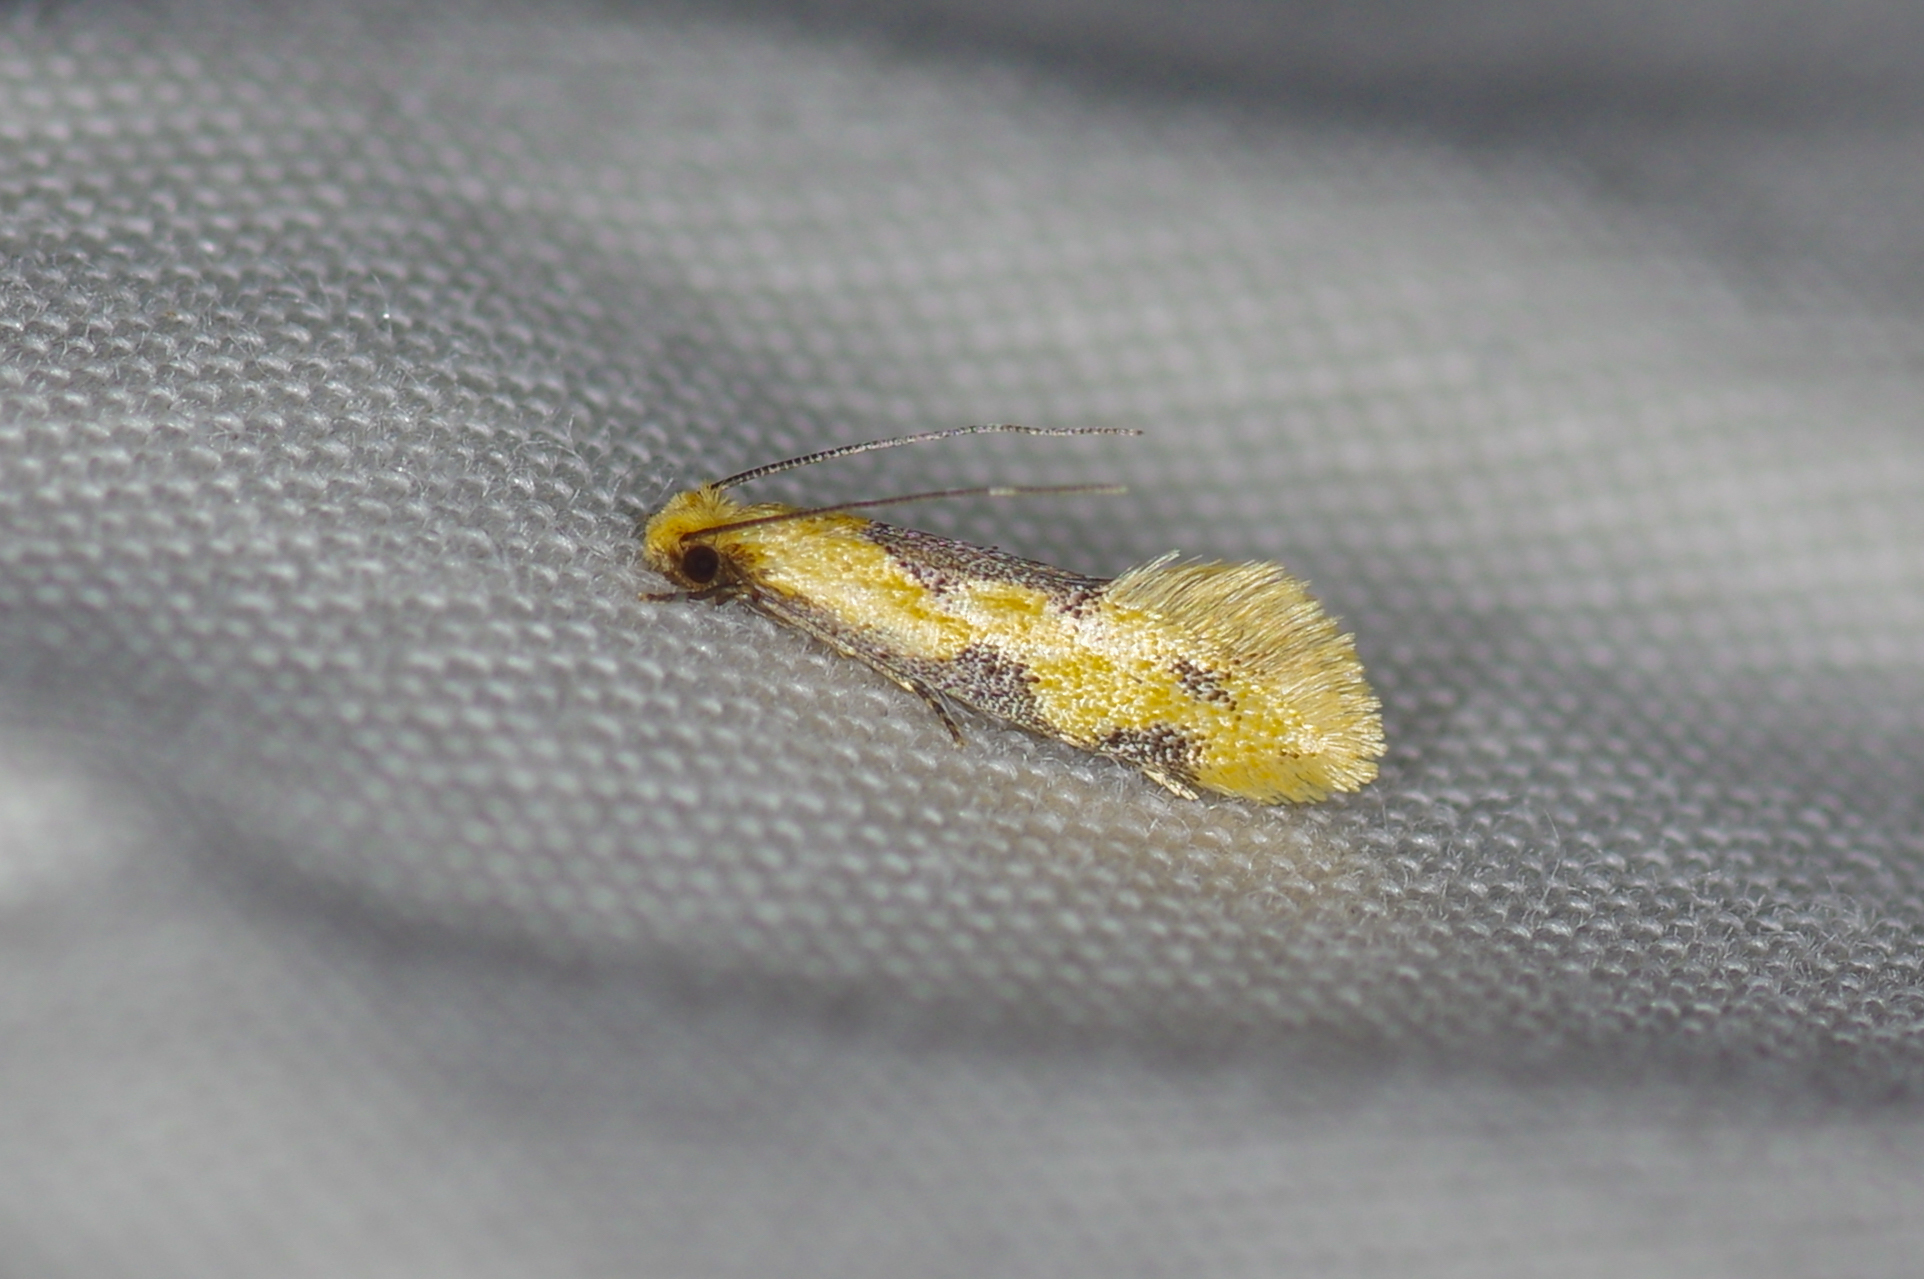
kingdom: Animalia
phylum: Arthropoda
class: Insecta
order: Lepidoptera
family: Meessiidae
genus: Hybroma
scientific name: Hybroma servulella
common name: Yellow wave moth
